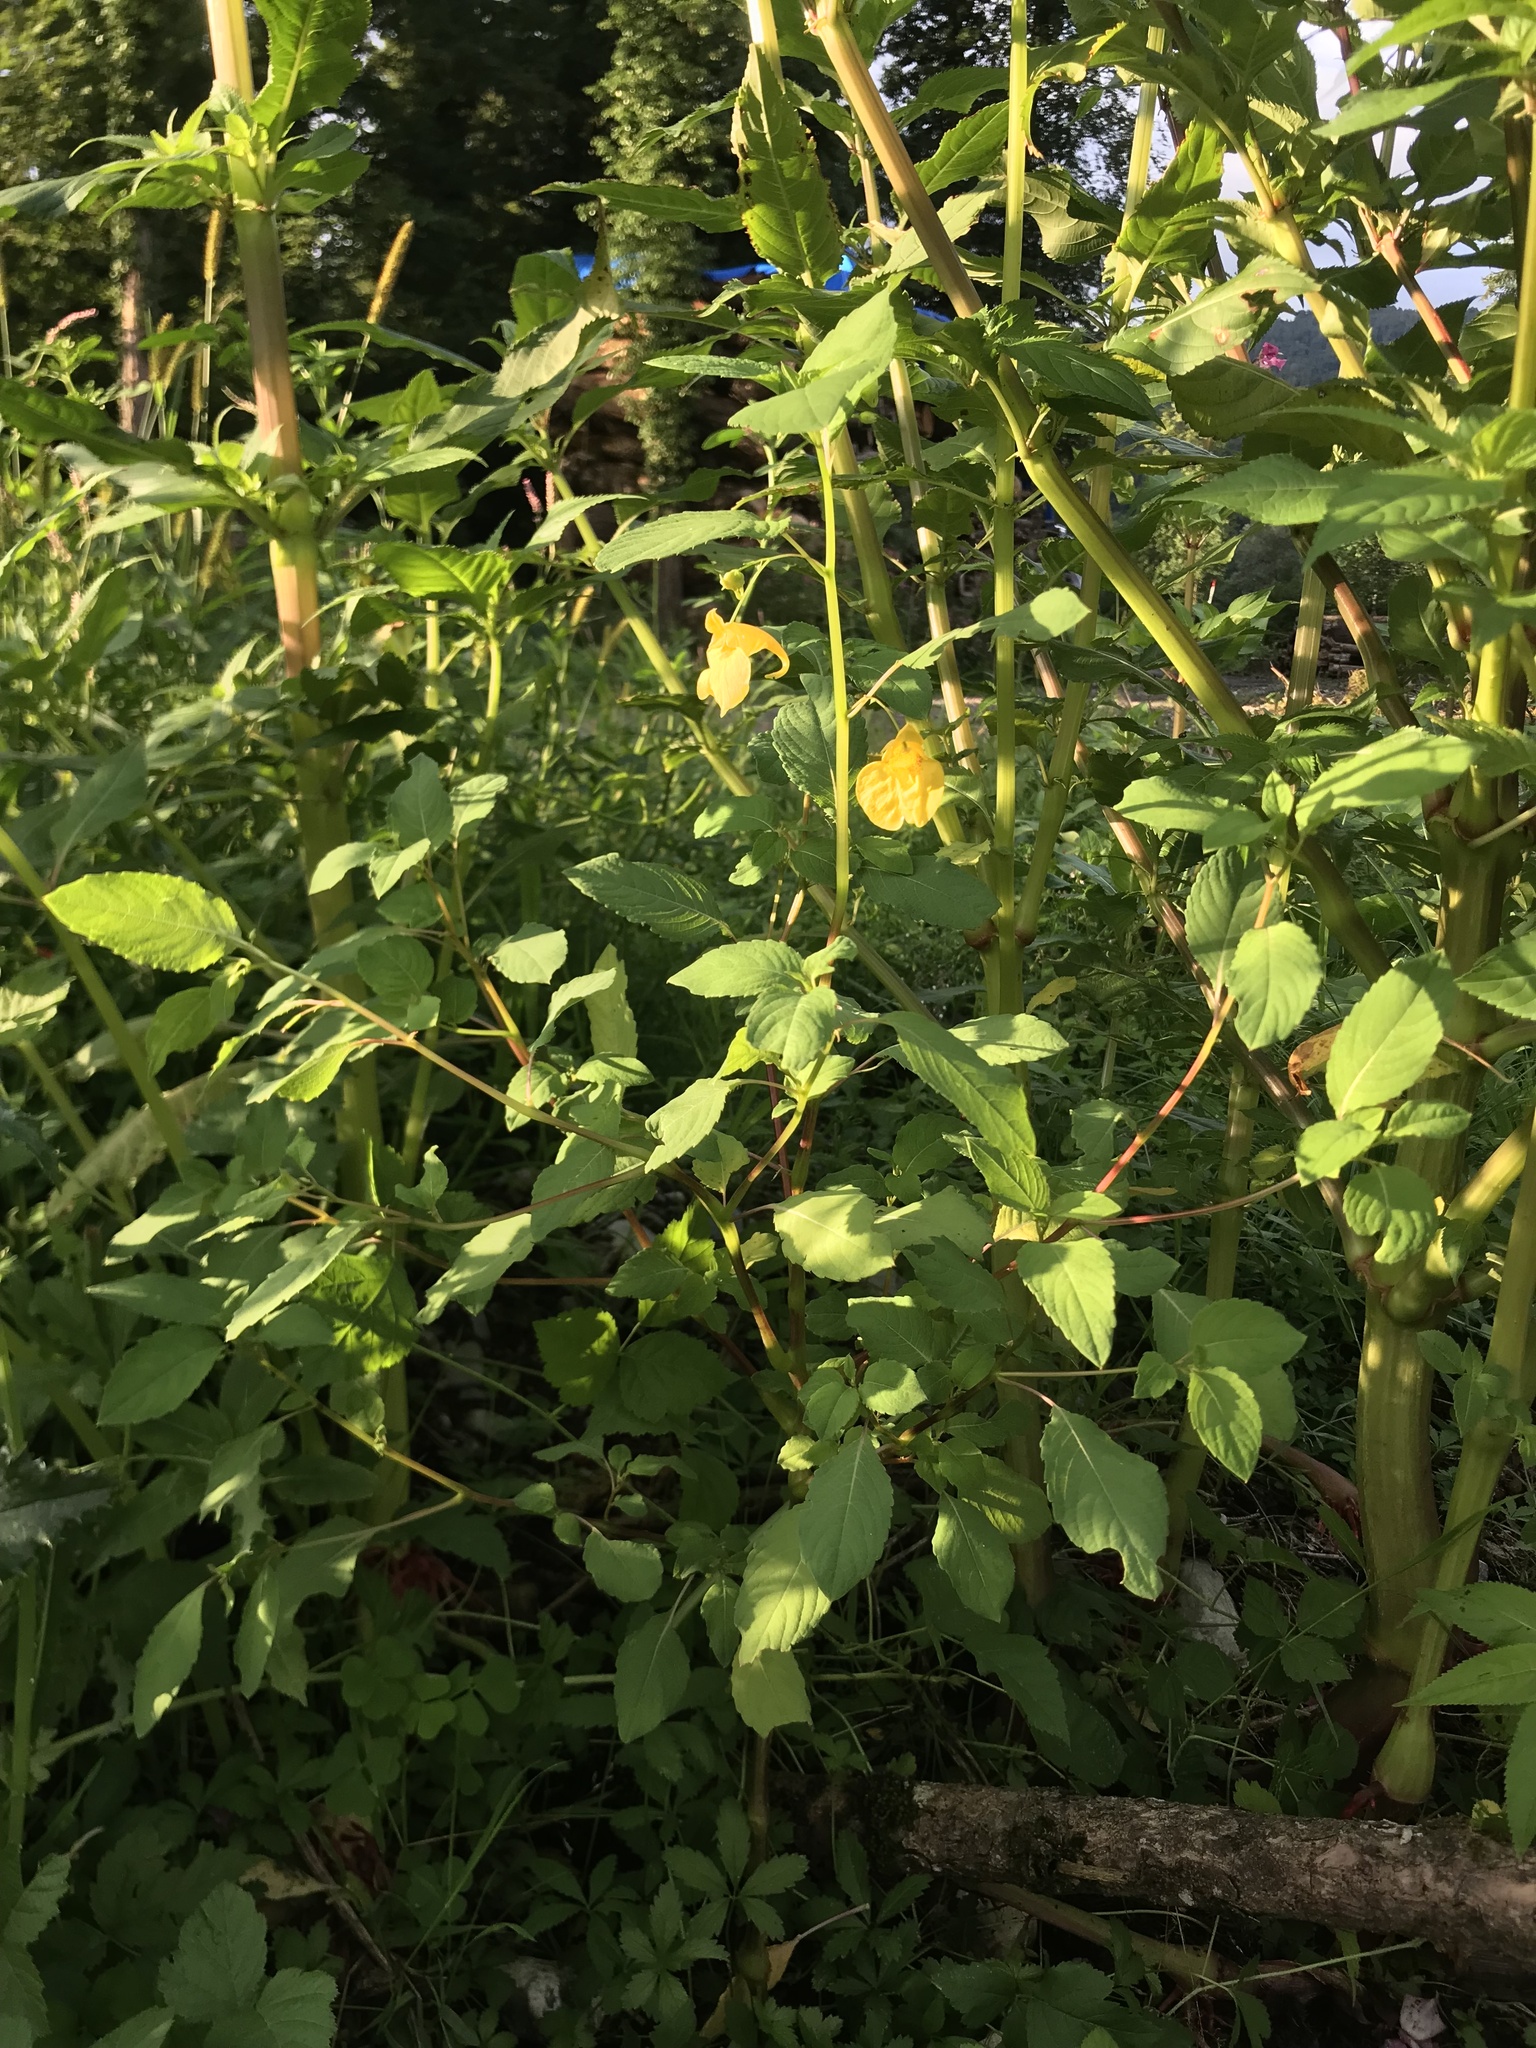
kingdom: Plantae
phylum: Tracheophyta
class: Magnoliopsida
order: Ericales
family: Balsaminaceae
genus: Impatiens
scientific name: Impatiens noli-tangere
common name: Touch-me-not balsam
